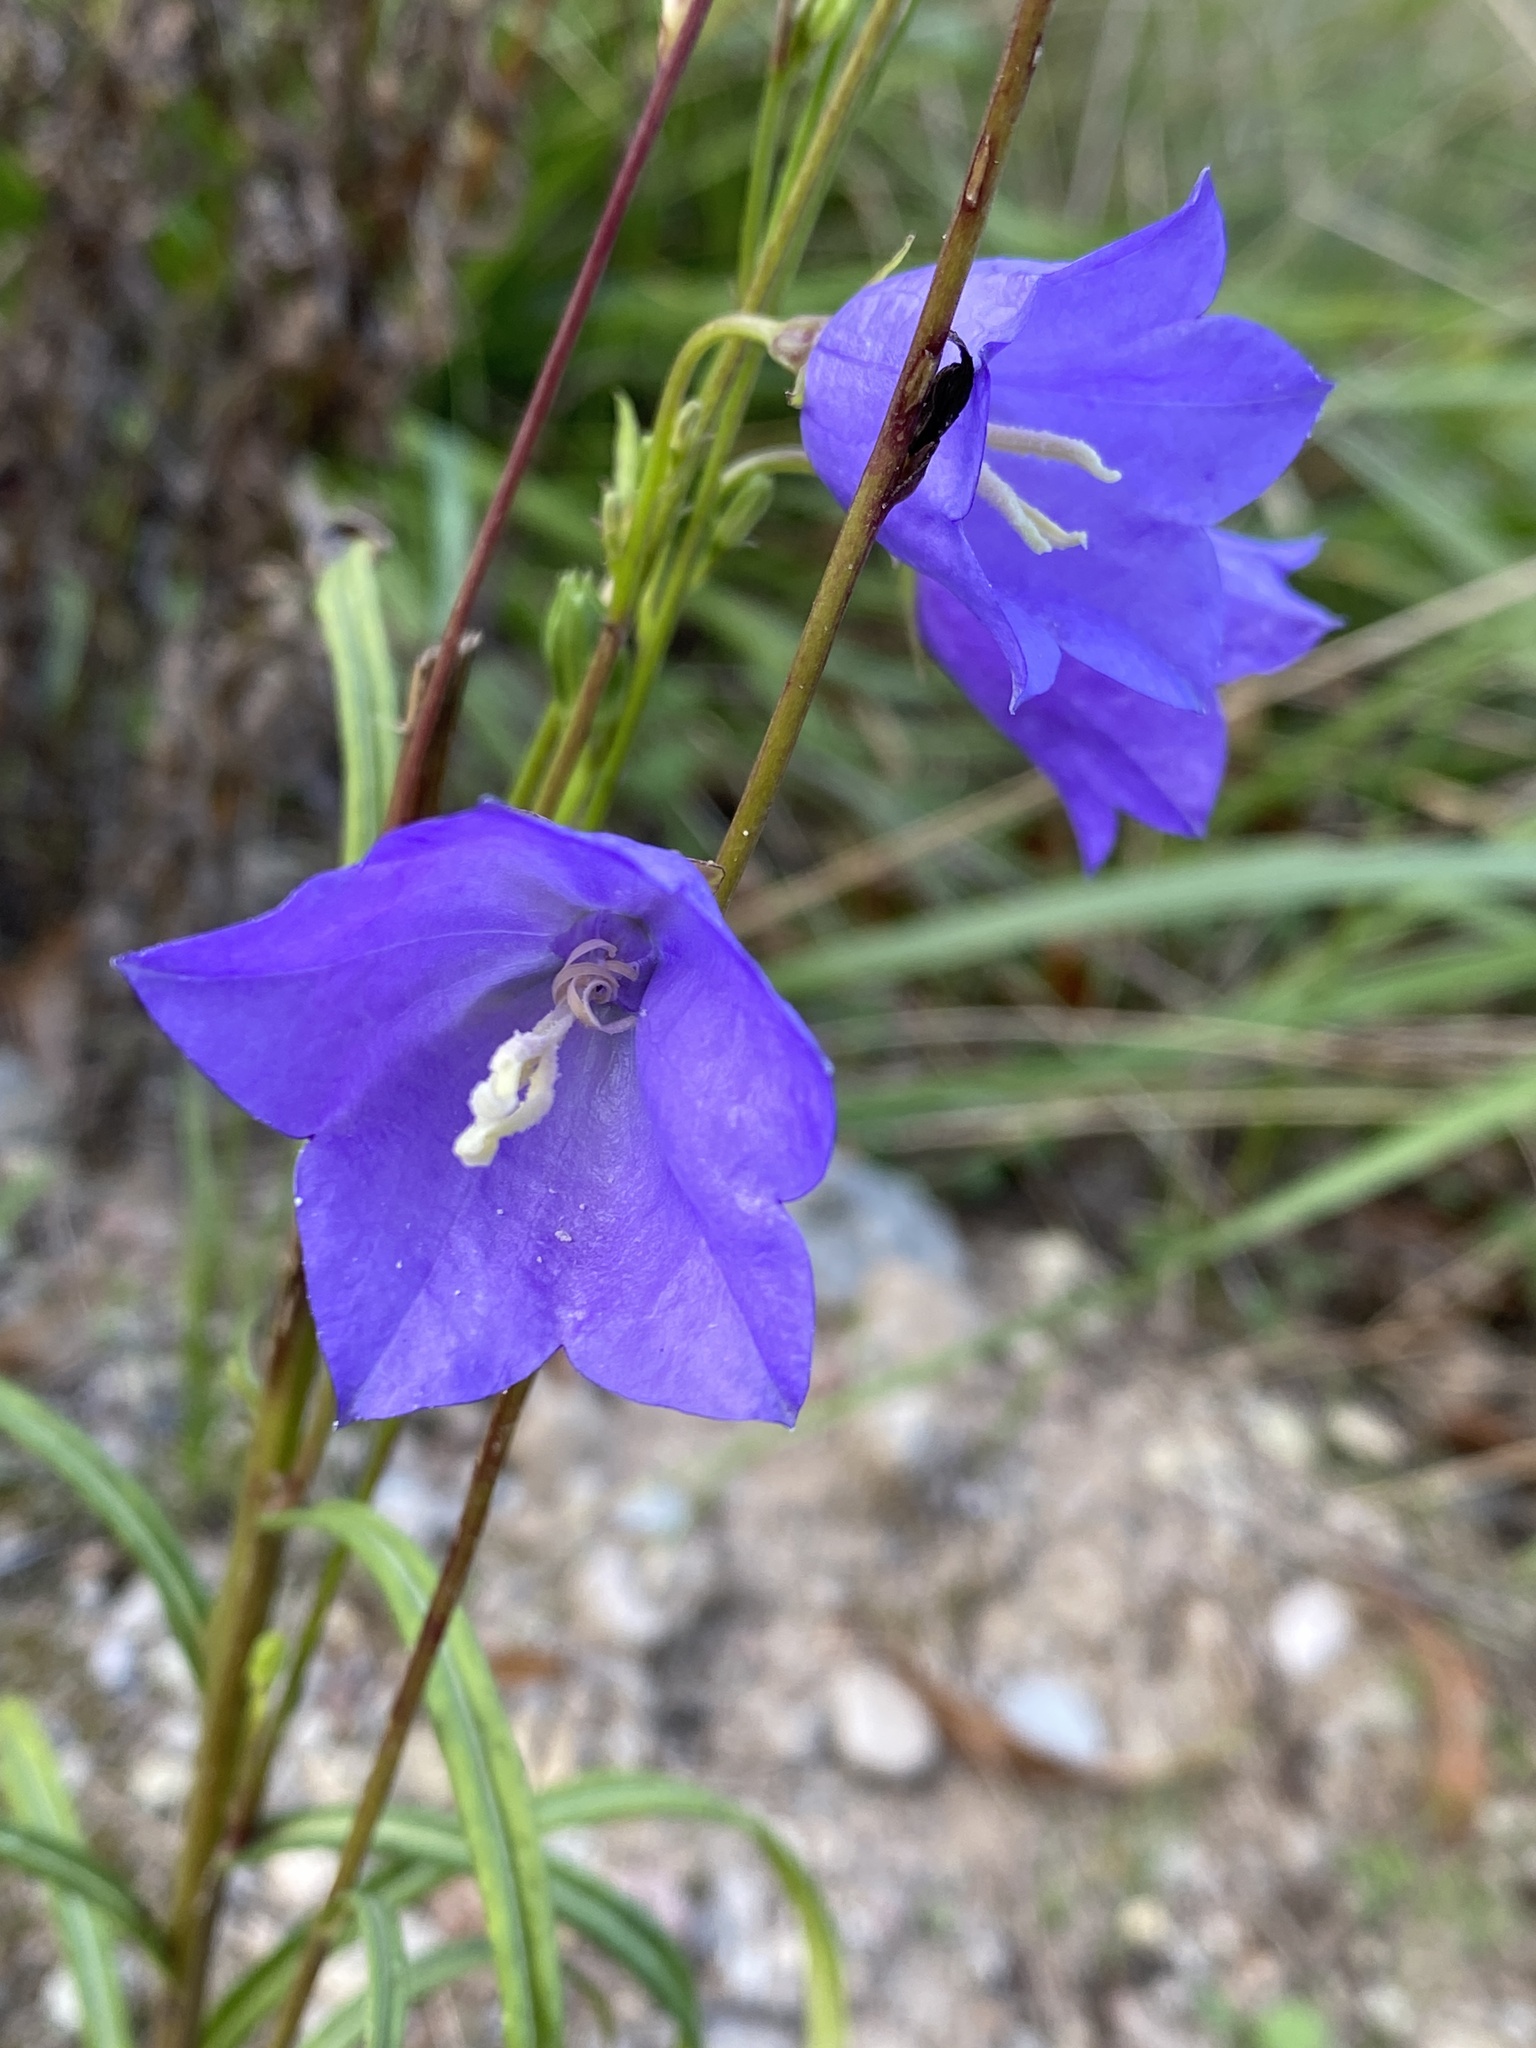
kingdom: Plantae
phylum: Tracheophyta
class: Magnoliopsida
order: Asterales
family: Campanulaceae
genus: Campanula
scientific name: Campanula persicifolia
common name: Peach-leaved bellflower
